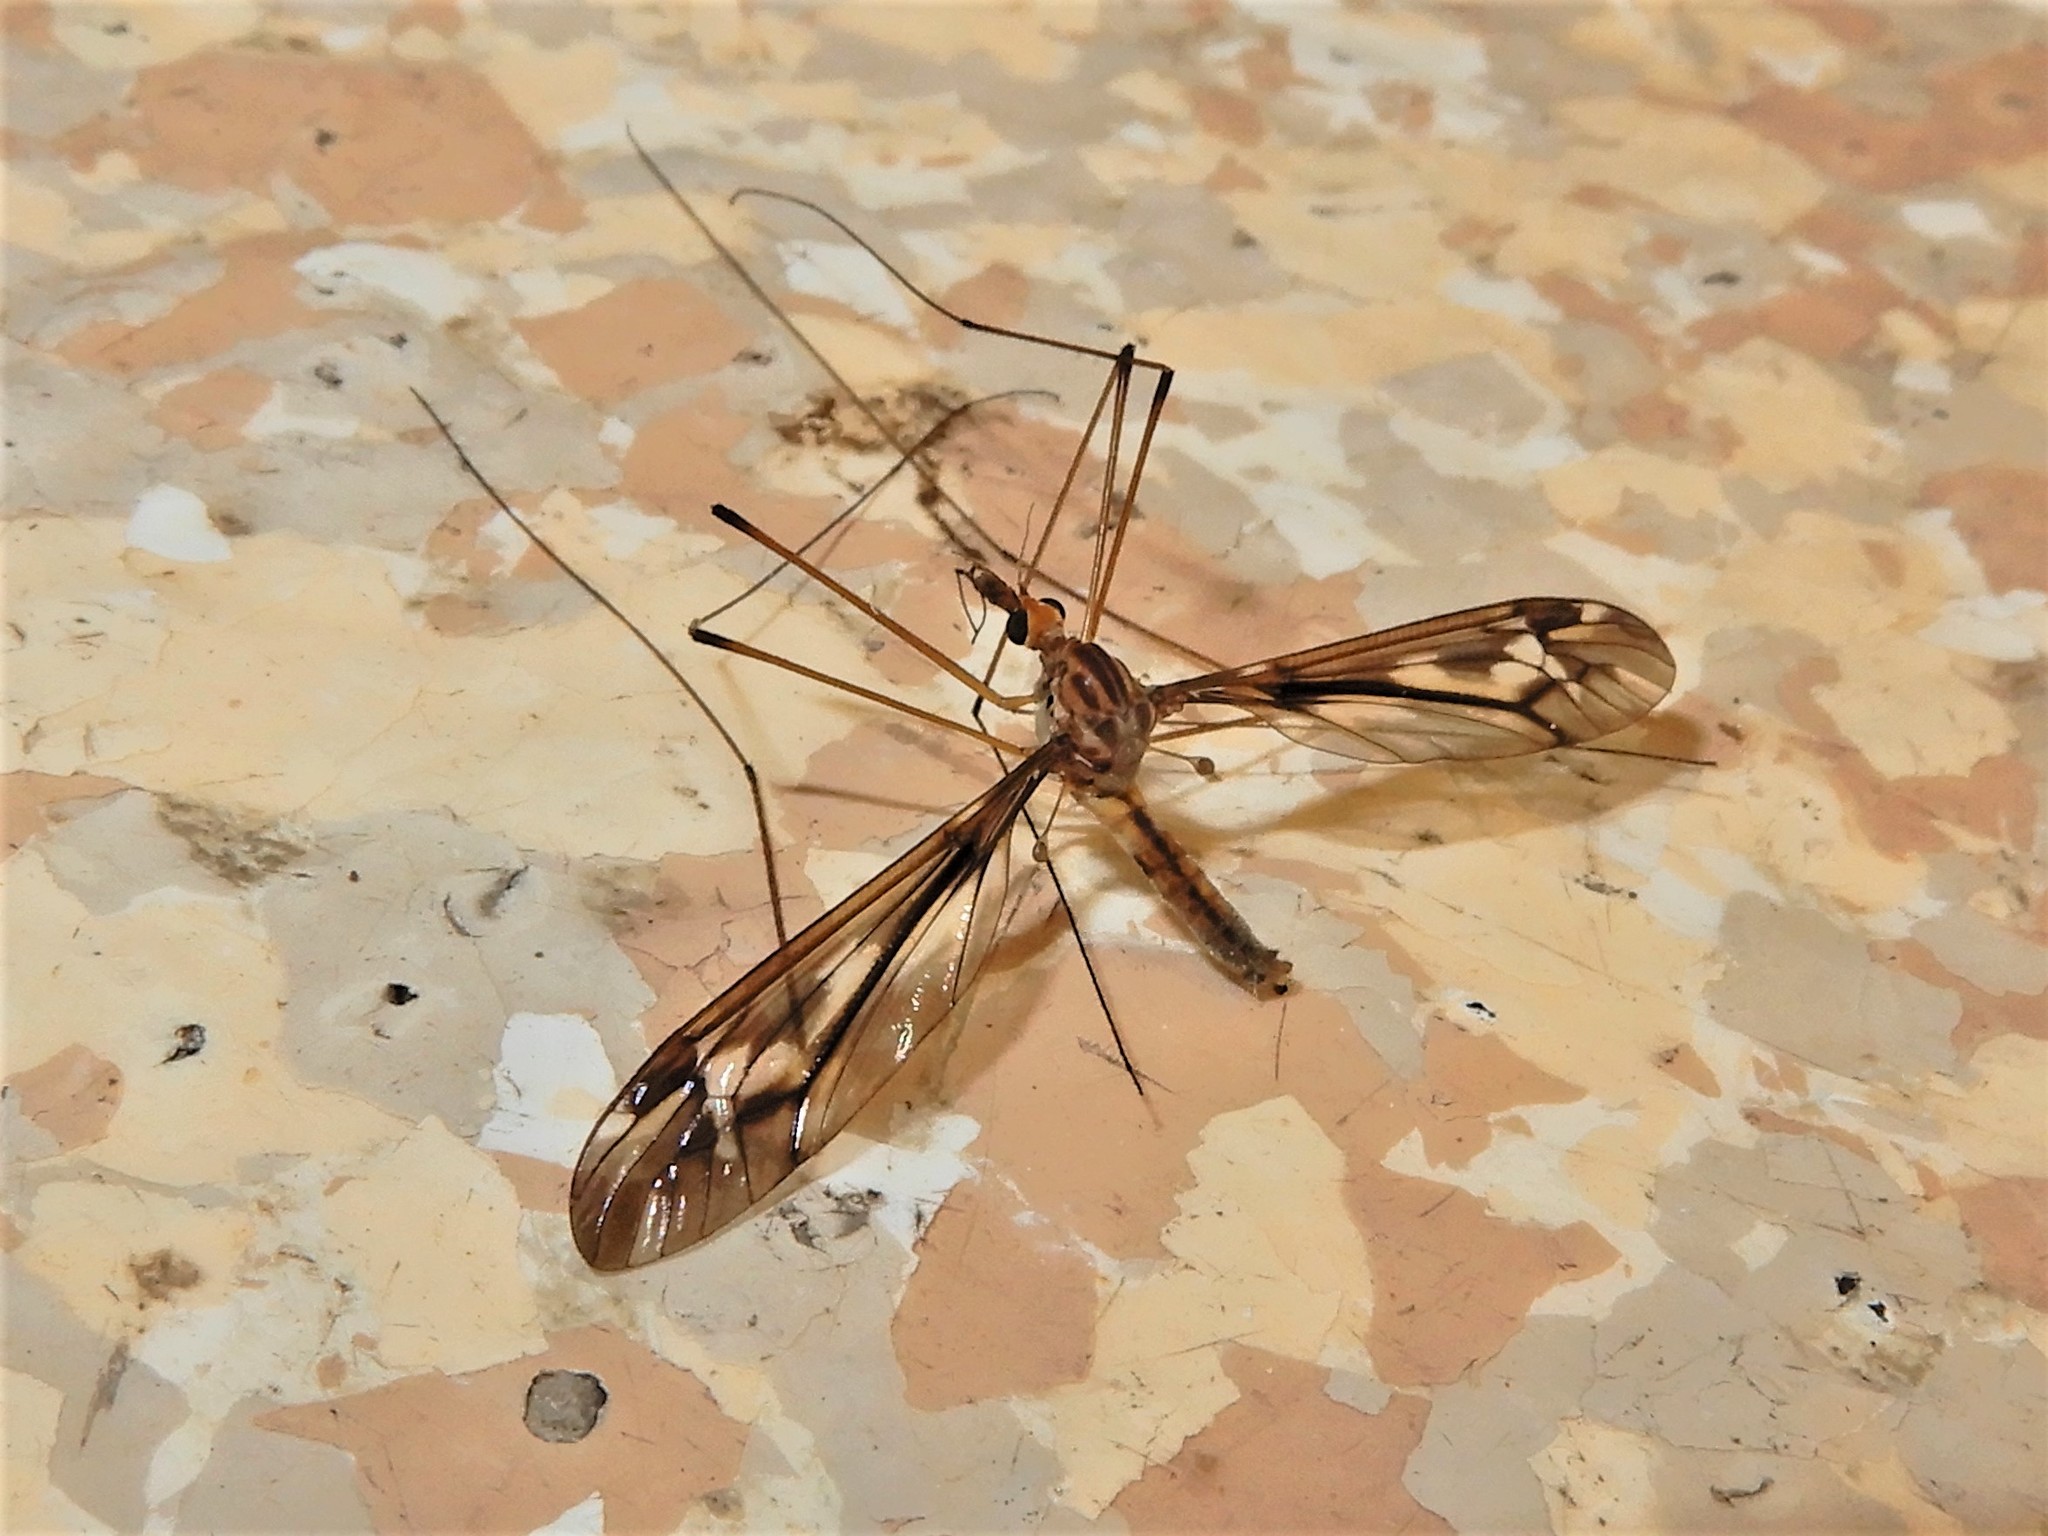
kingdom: Animalia
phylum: Arthropoda
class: Insecta
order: Diptera
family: Tipulidae
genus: Leptotarsus
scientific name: Leptotarsus huttoni
